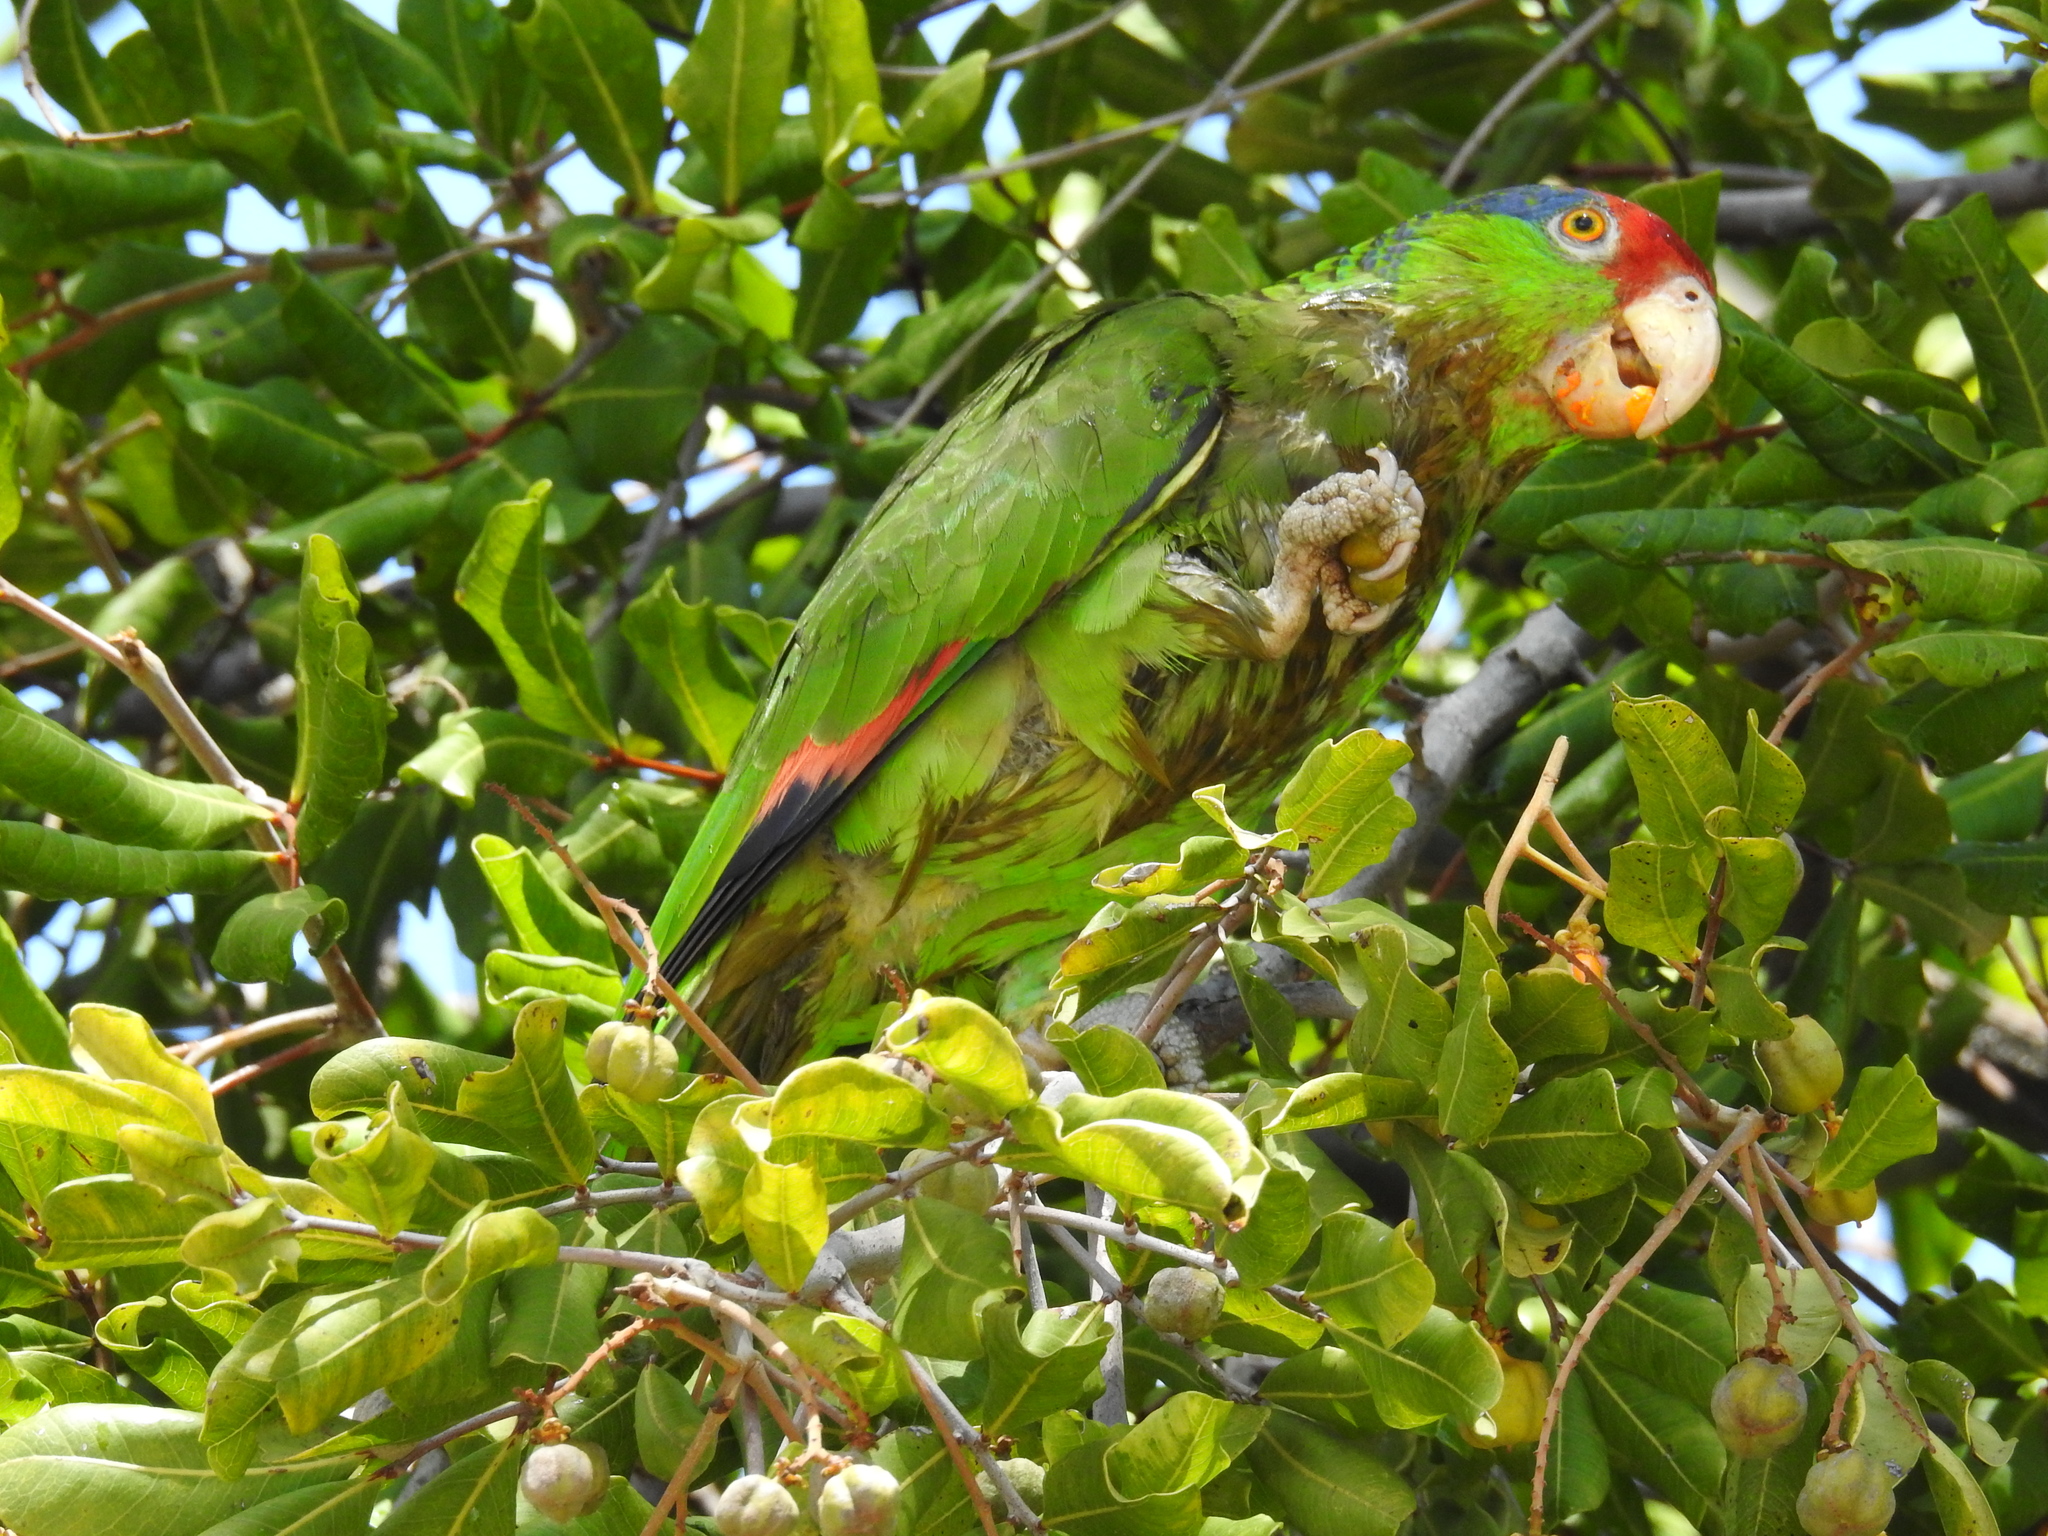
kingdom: Animalia
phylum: Chordata
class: Aves
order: Psittaciformes
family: Psittacidae
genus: Amazona
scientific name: Amazona viridigenalis
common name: Red-crowned amazon
